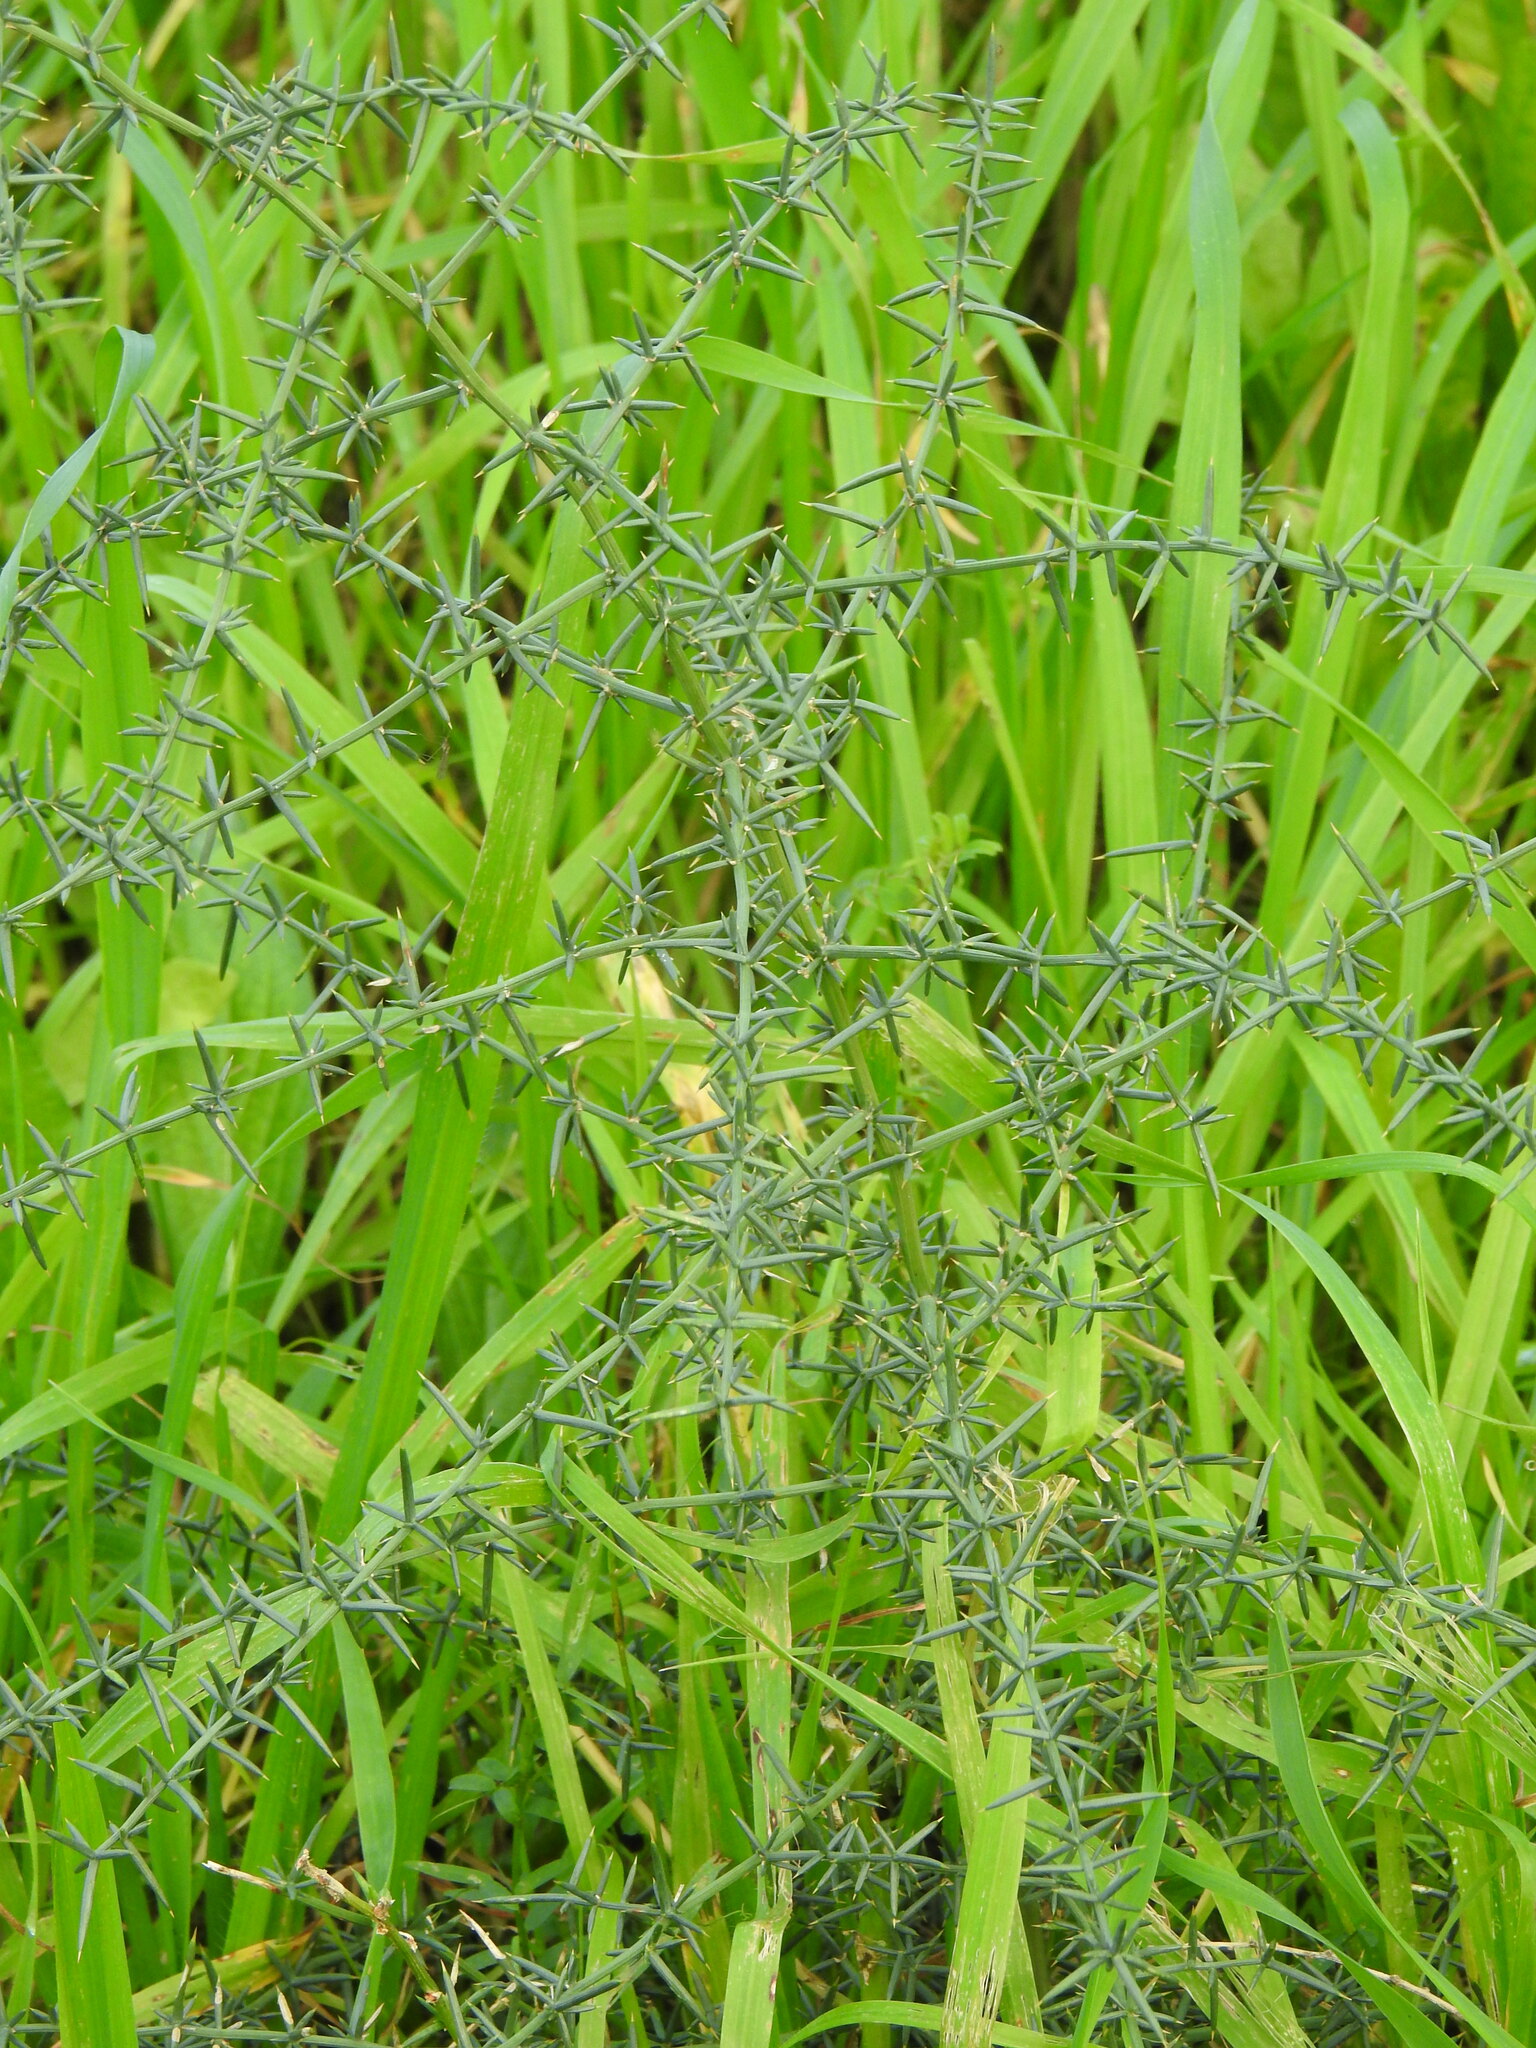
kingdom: Plantae
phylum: Tracheophyta
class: Liliopsida
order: Asparagales
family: Asparagaceae
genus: Asparagus
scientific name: Asparagus aphyllus
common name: Mediterranean asparagus
